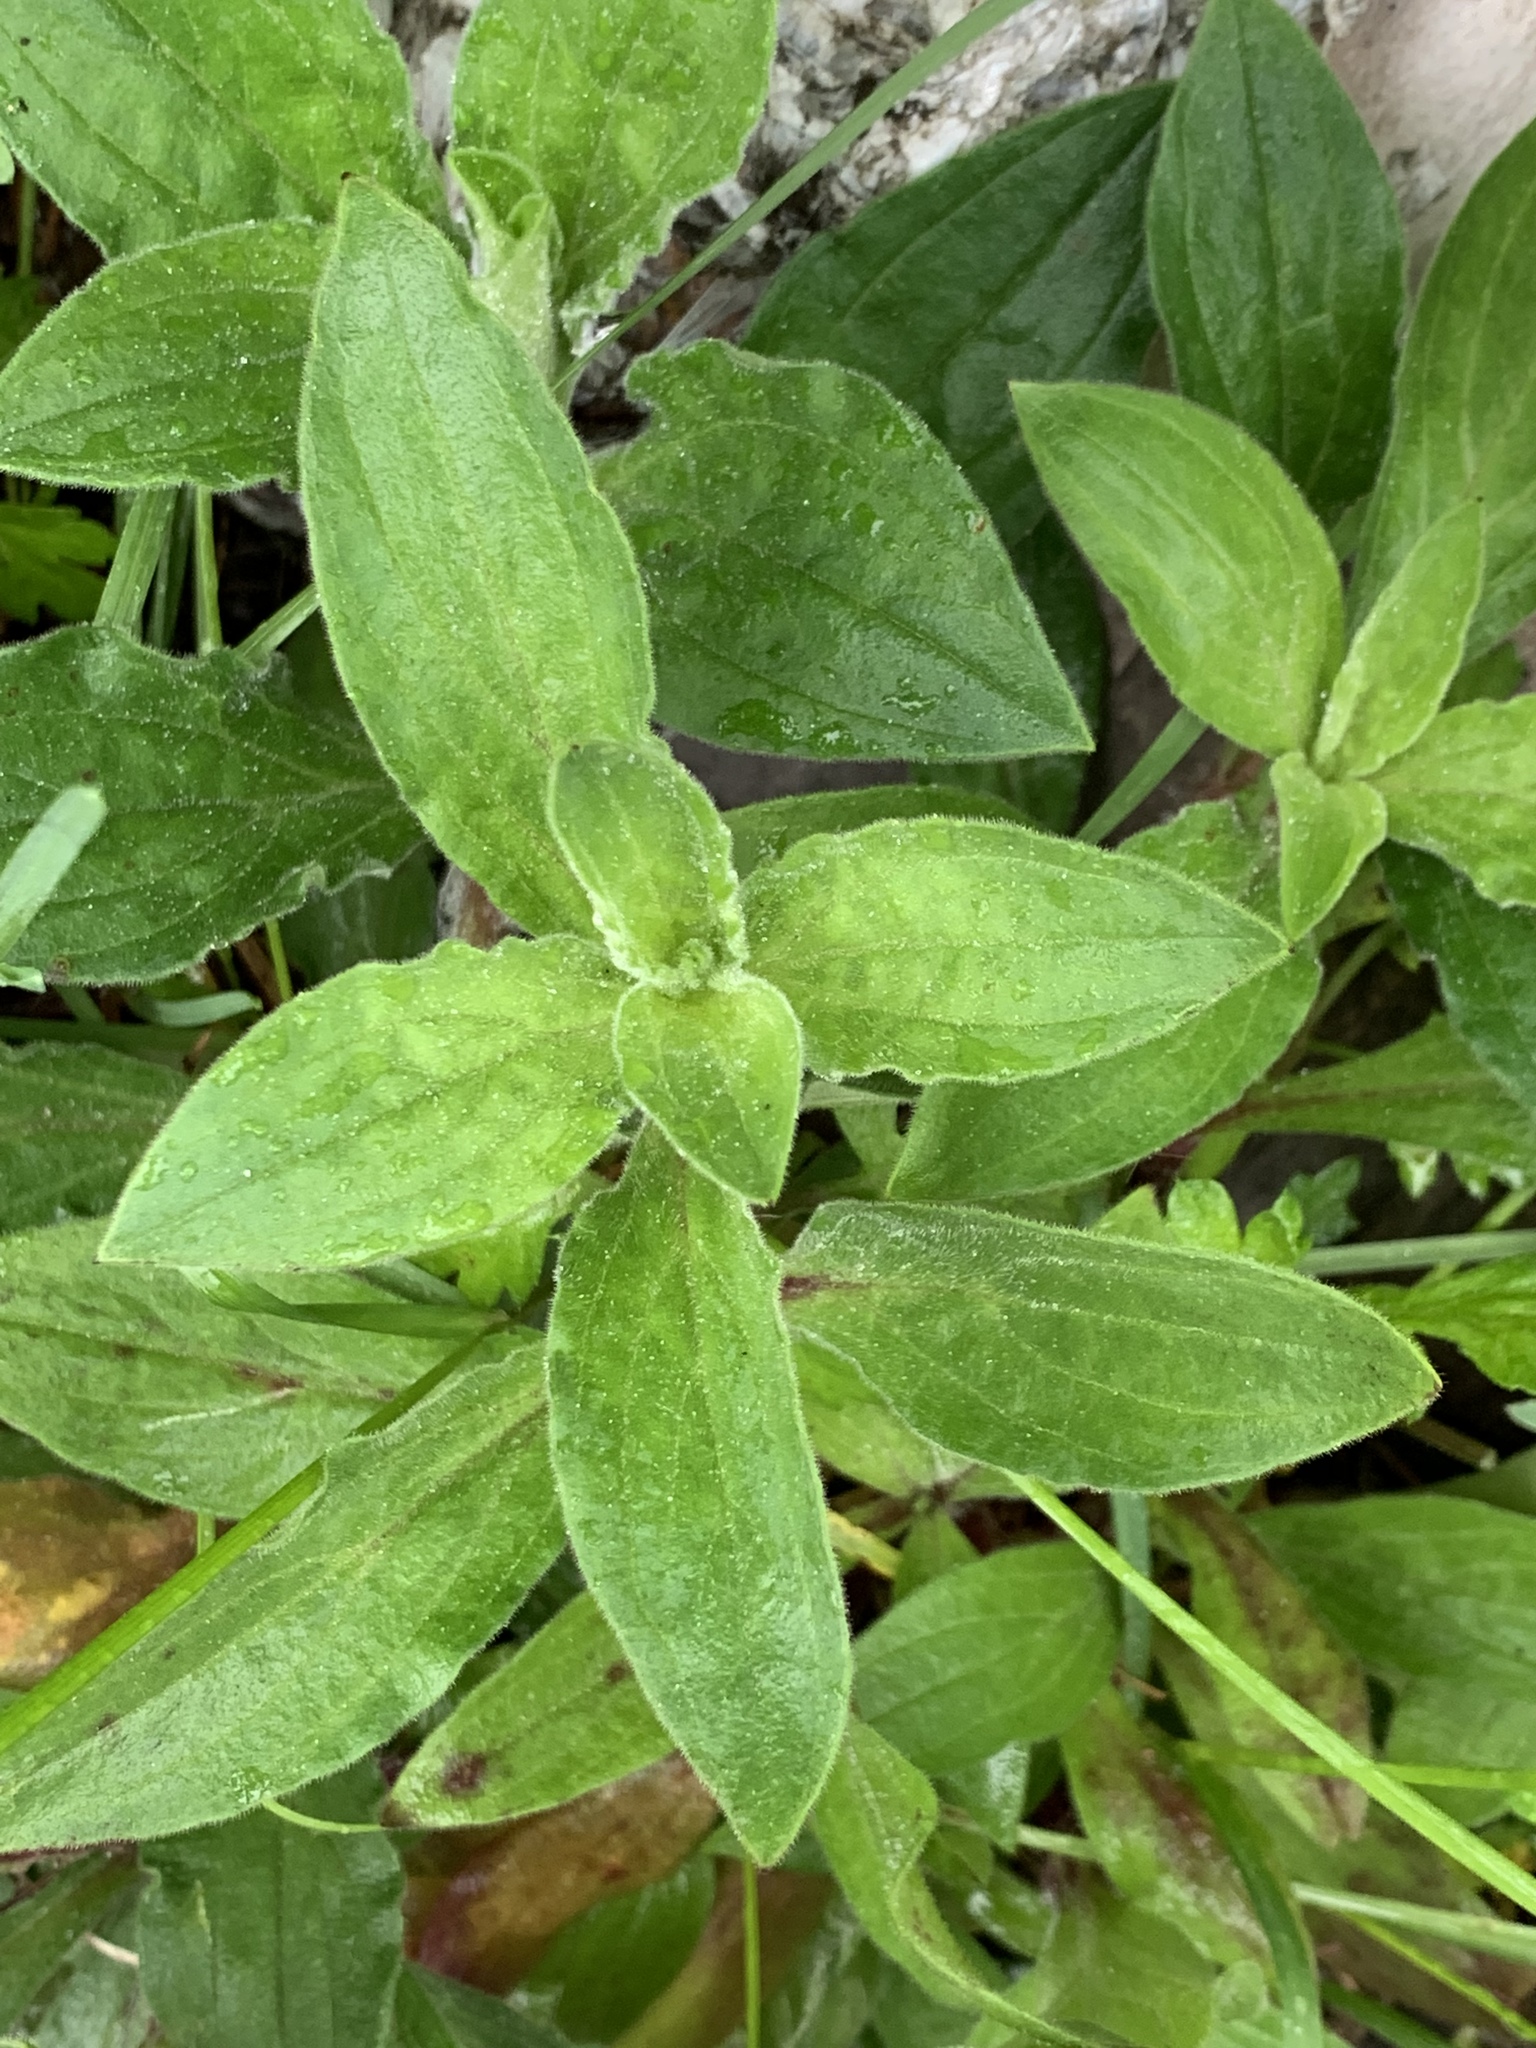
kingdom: Plantae
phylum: Tracheophyta
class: Magnoliopsida
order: Caryophyllales
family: Caryophyllaceae
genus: Silene
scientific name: Silene latifolia
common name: White campion
